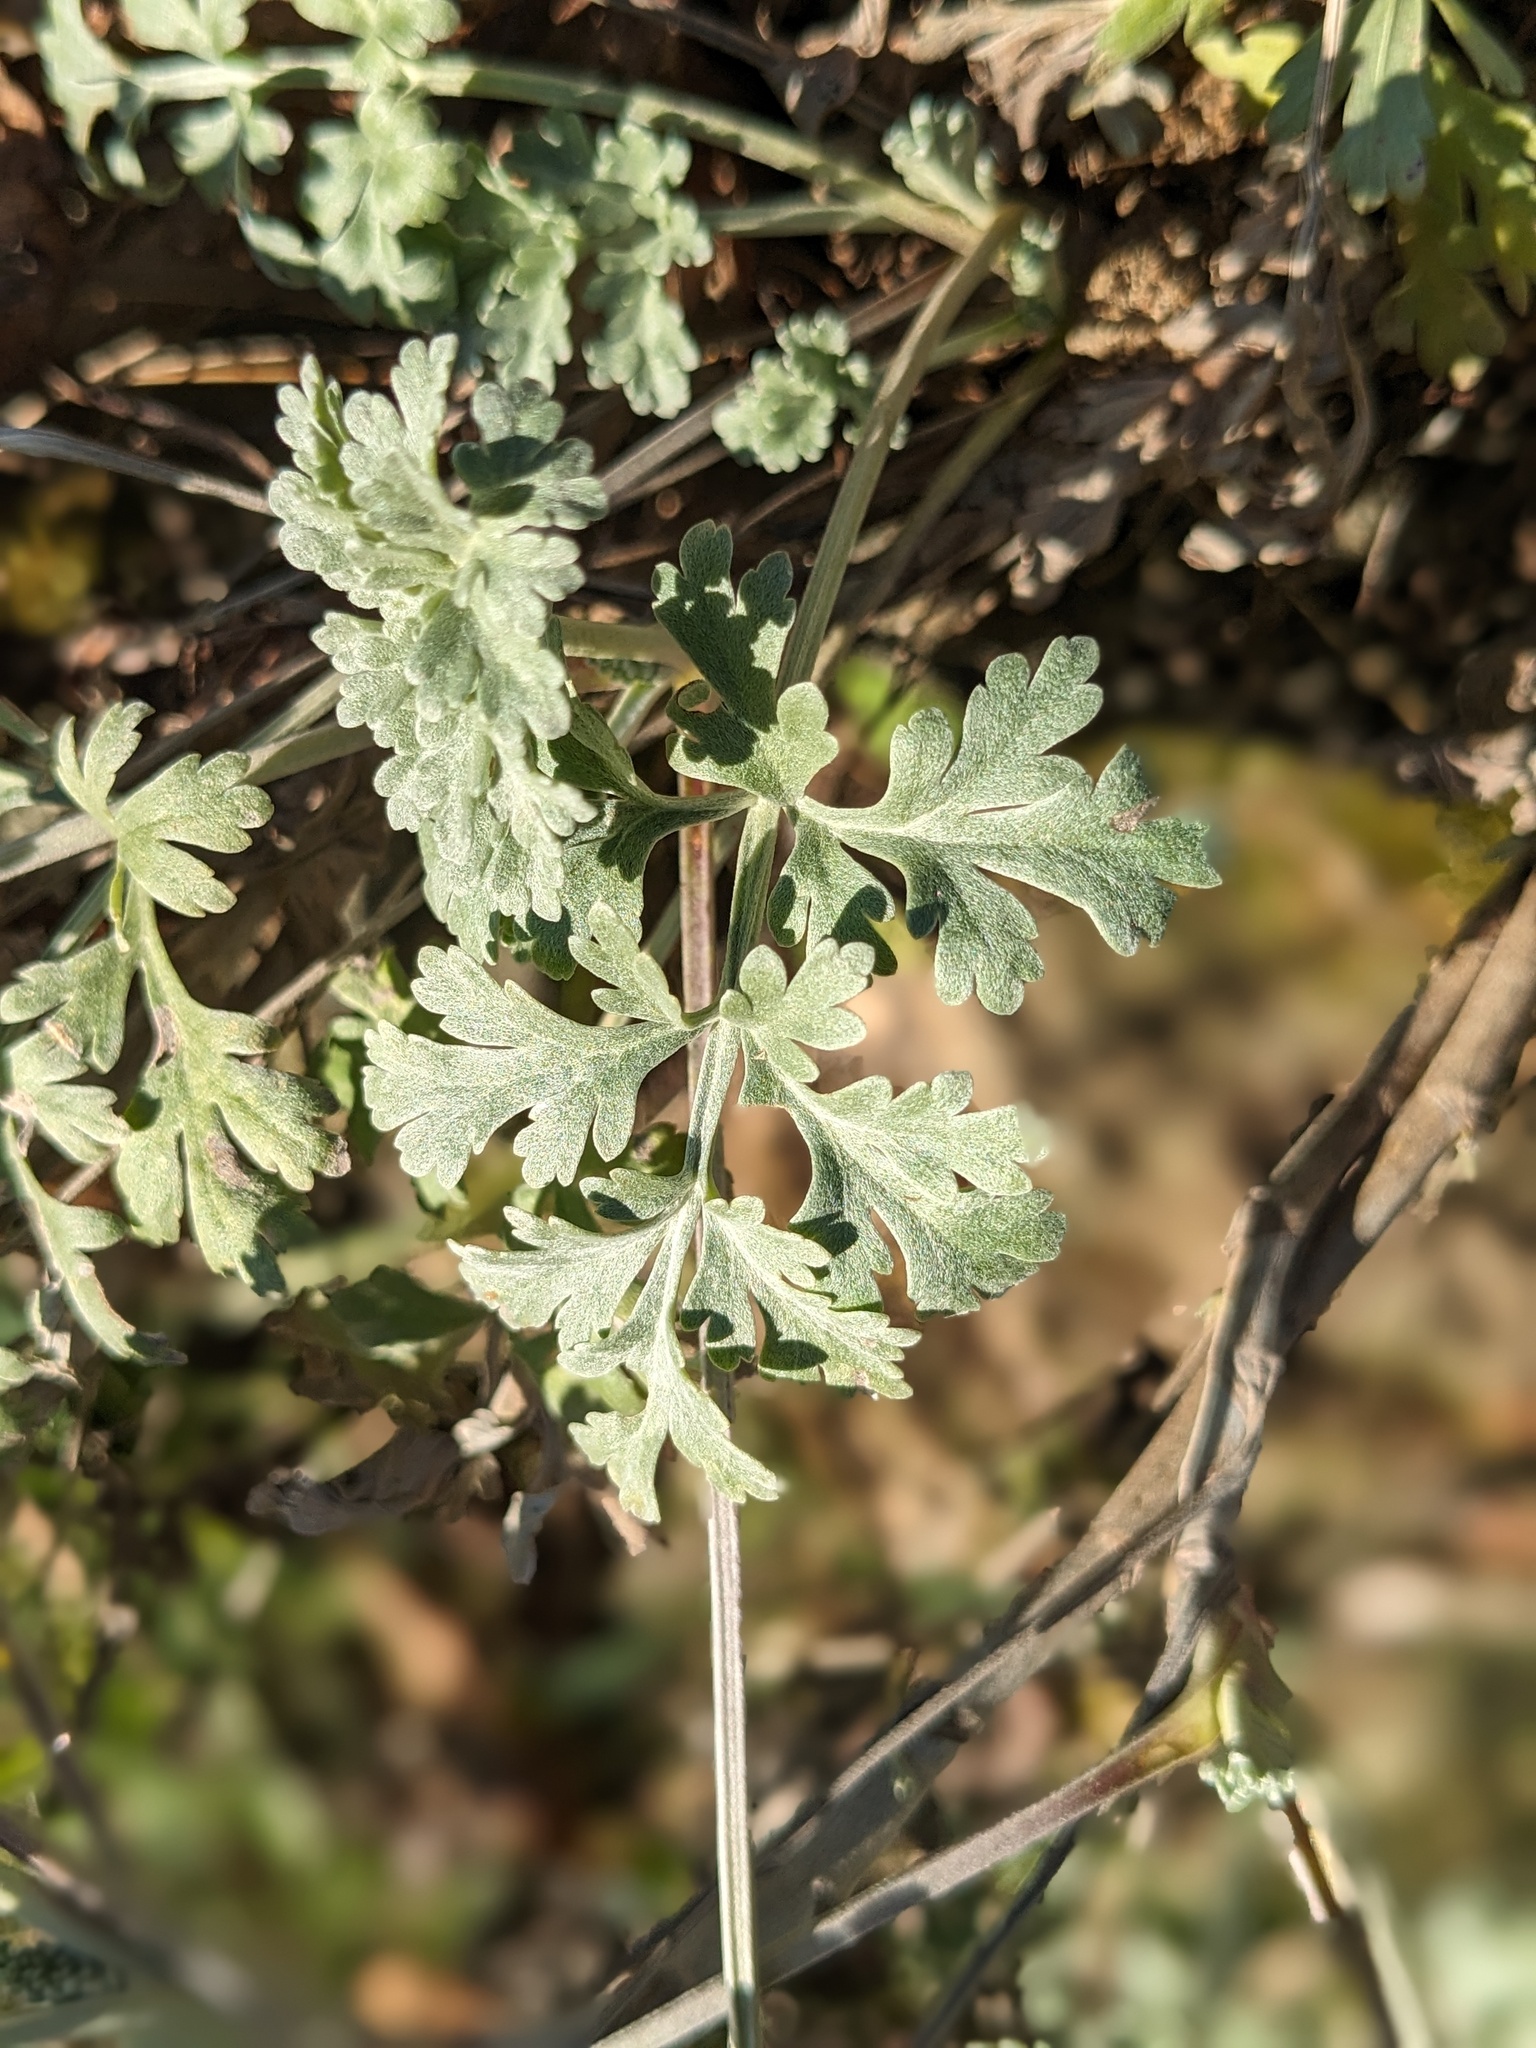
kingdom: Plantae
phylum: Tracheophyta
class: Magnoliopsida
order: Asterales
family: Asteraceae
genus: Artemisia
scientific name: Artemisia absinthium
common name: Wormwood
